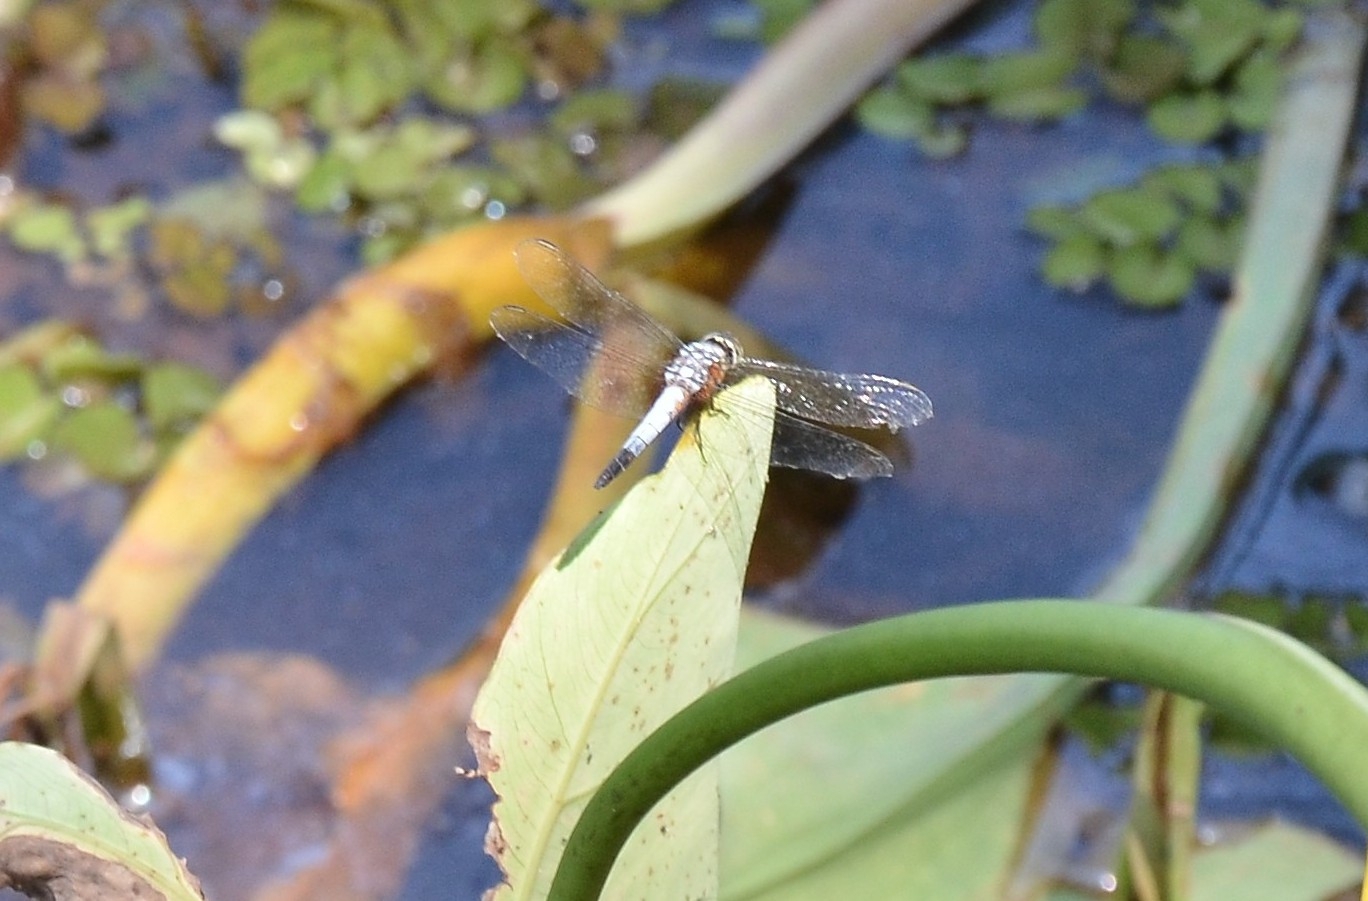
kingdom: Animalia
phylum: Arthropoda
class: Insecta
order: Odonata
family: Libellulidae
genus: Brachydiplax
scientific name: Brachydiplax chalybea
